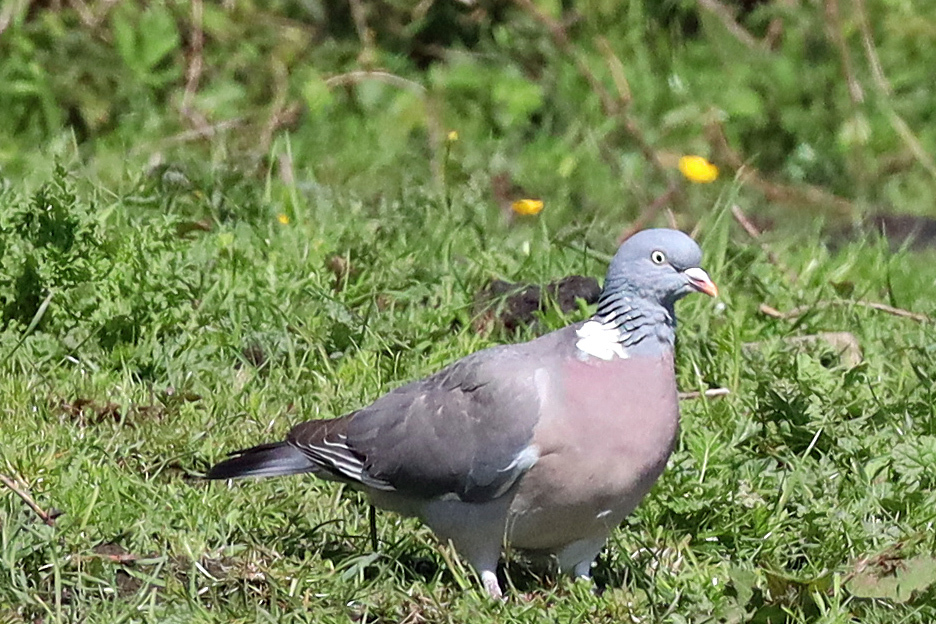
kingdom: Animalia
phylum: Chordata
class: Aves
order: Columbiformes
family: Columbidae
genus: Columba
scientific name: Columba palumbus
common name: Common wood pigeon
